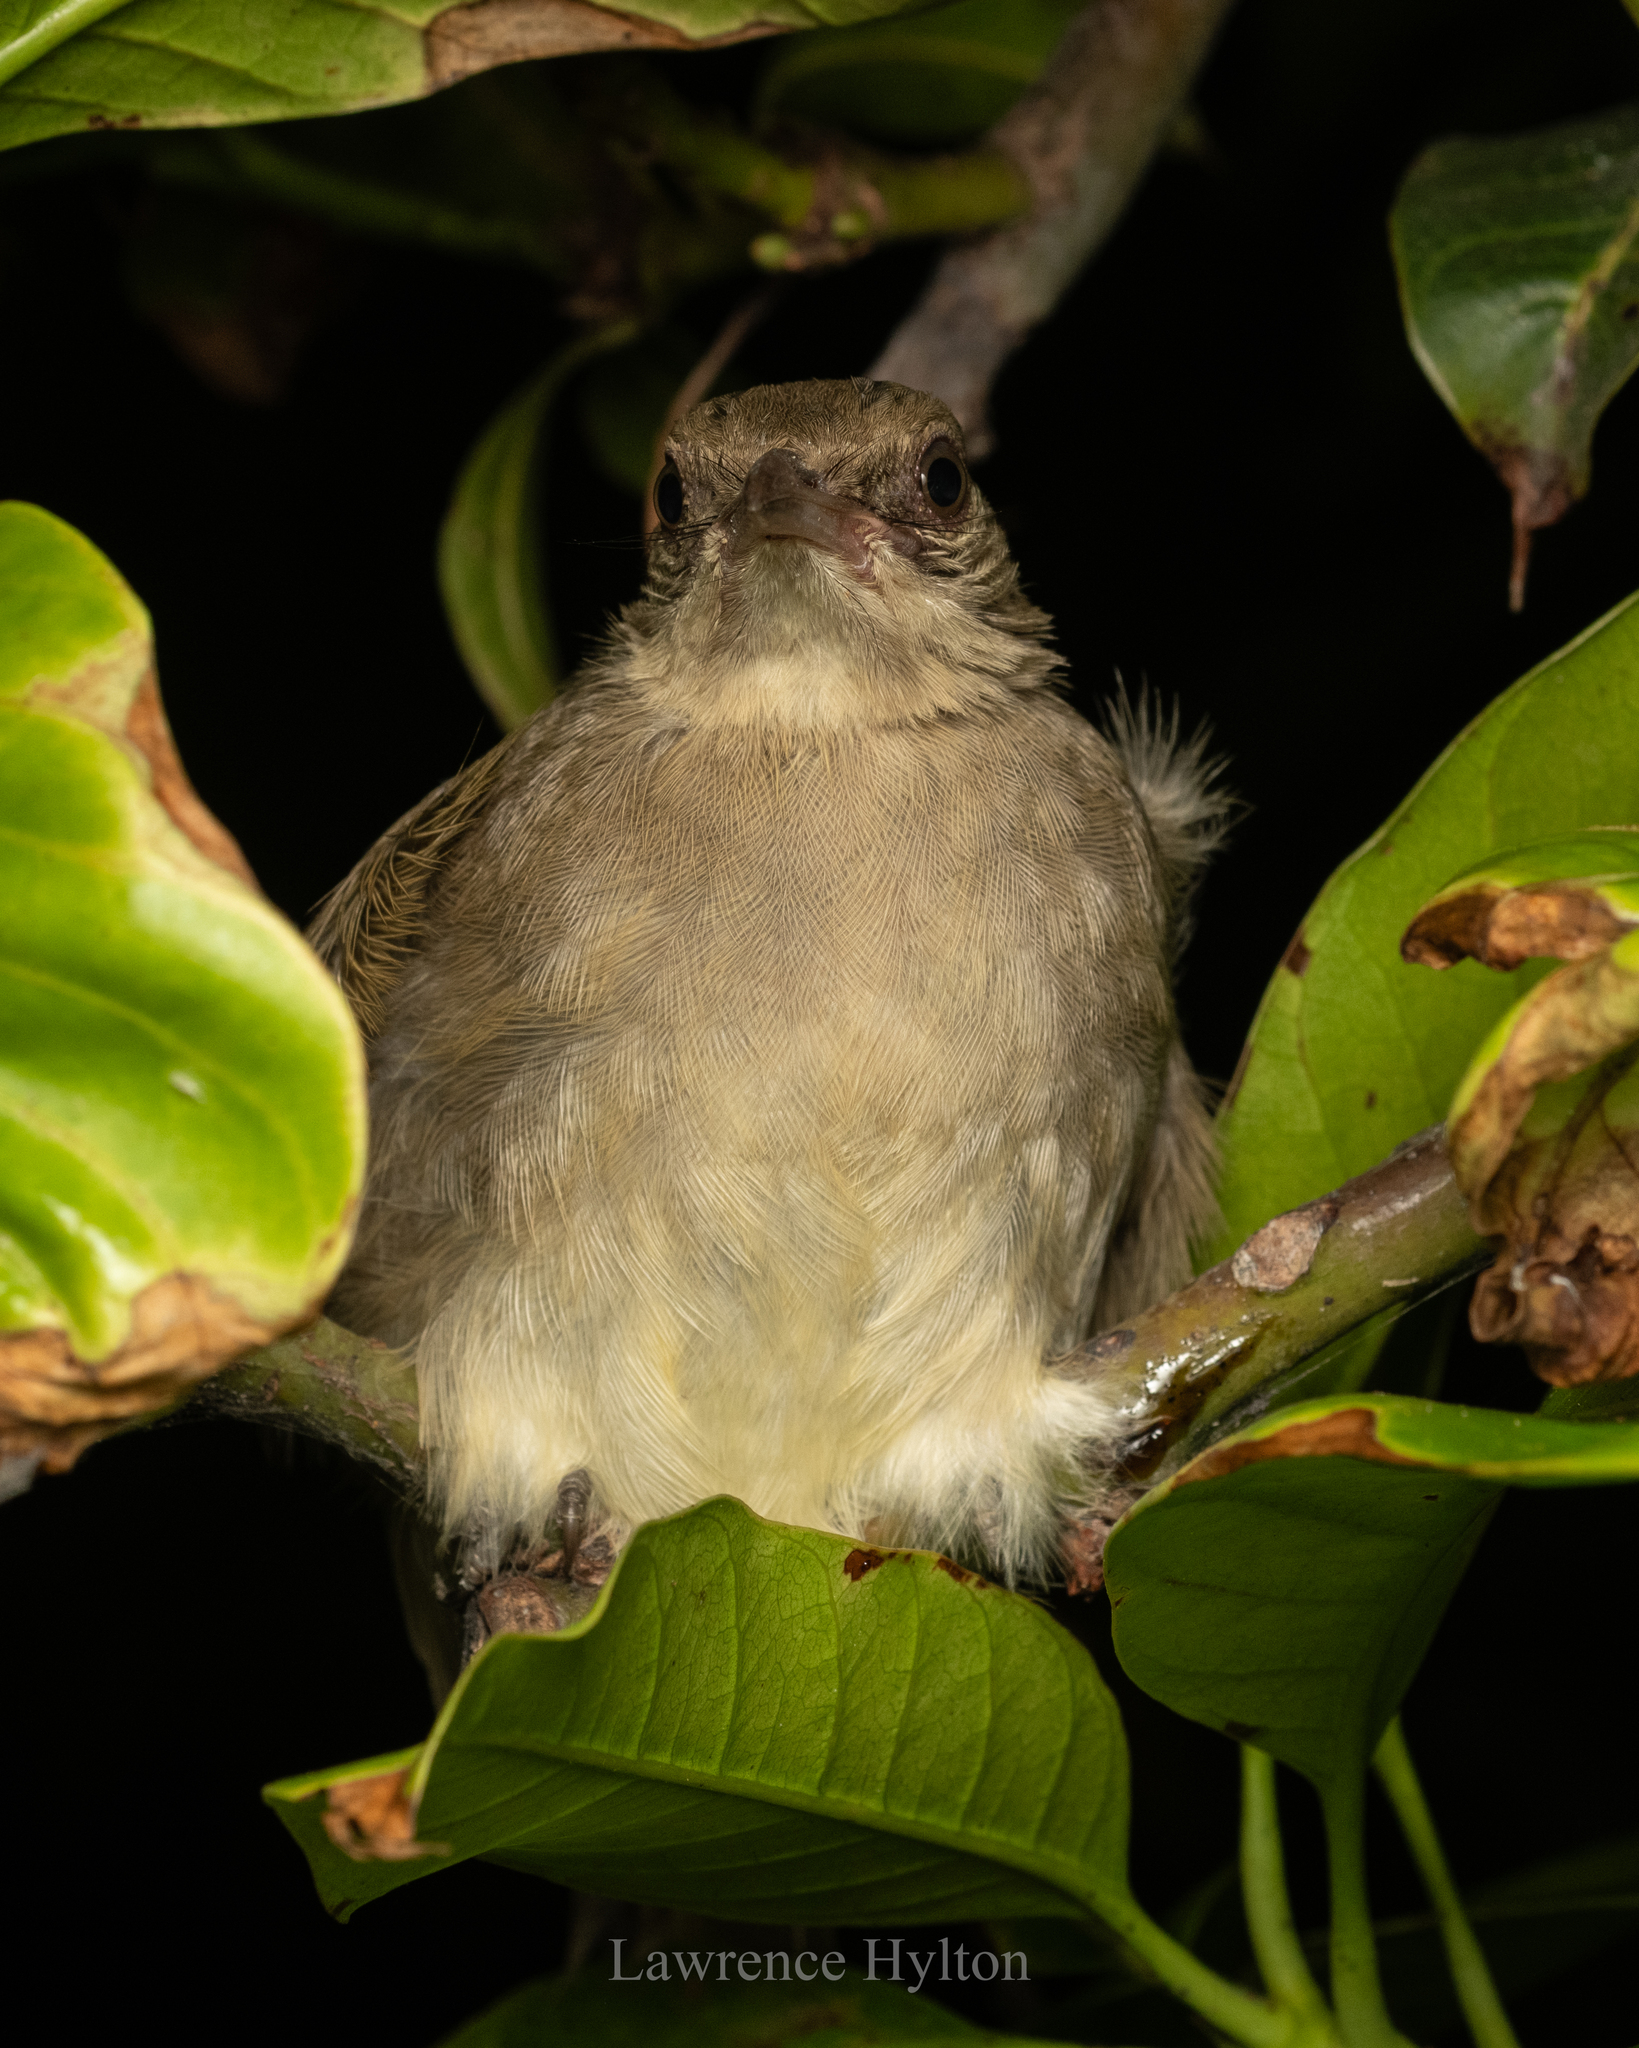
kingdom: Animalia
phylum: Chordata
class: Aves
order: Passeriformes
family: Pycnonotidae
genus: Pycnonotus
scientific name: Pycnonotus blanfordi
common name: Streak-eared bulbul
